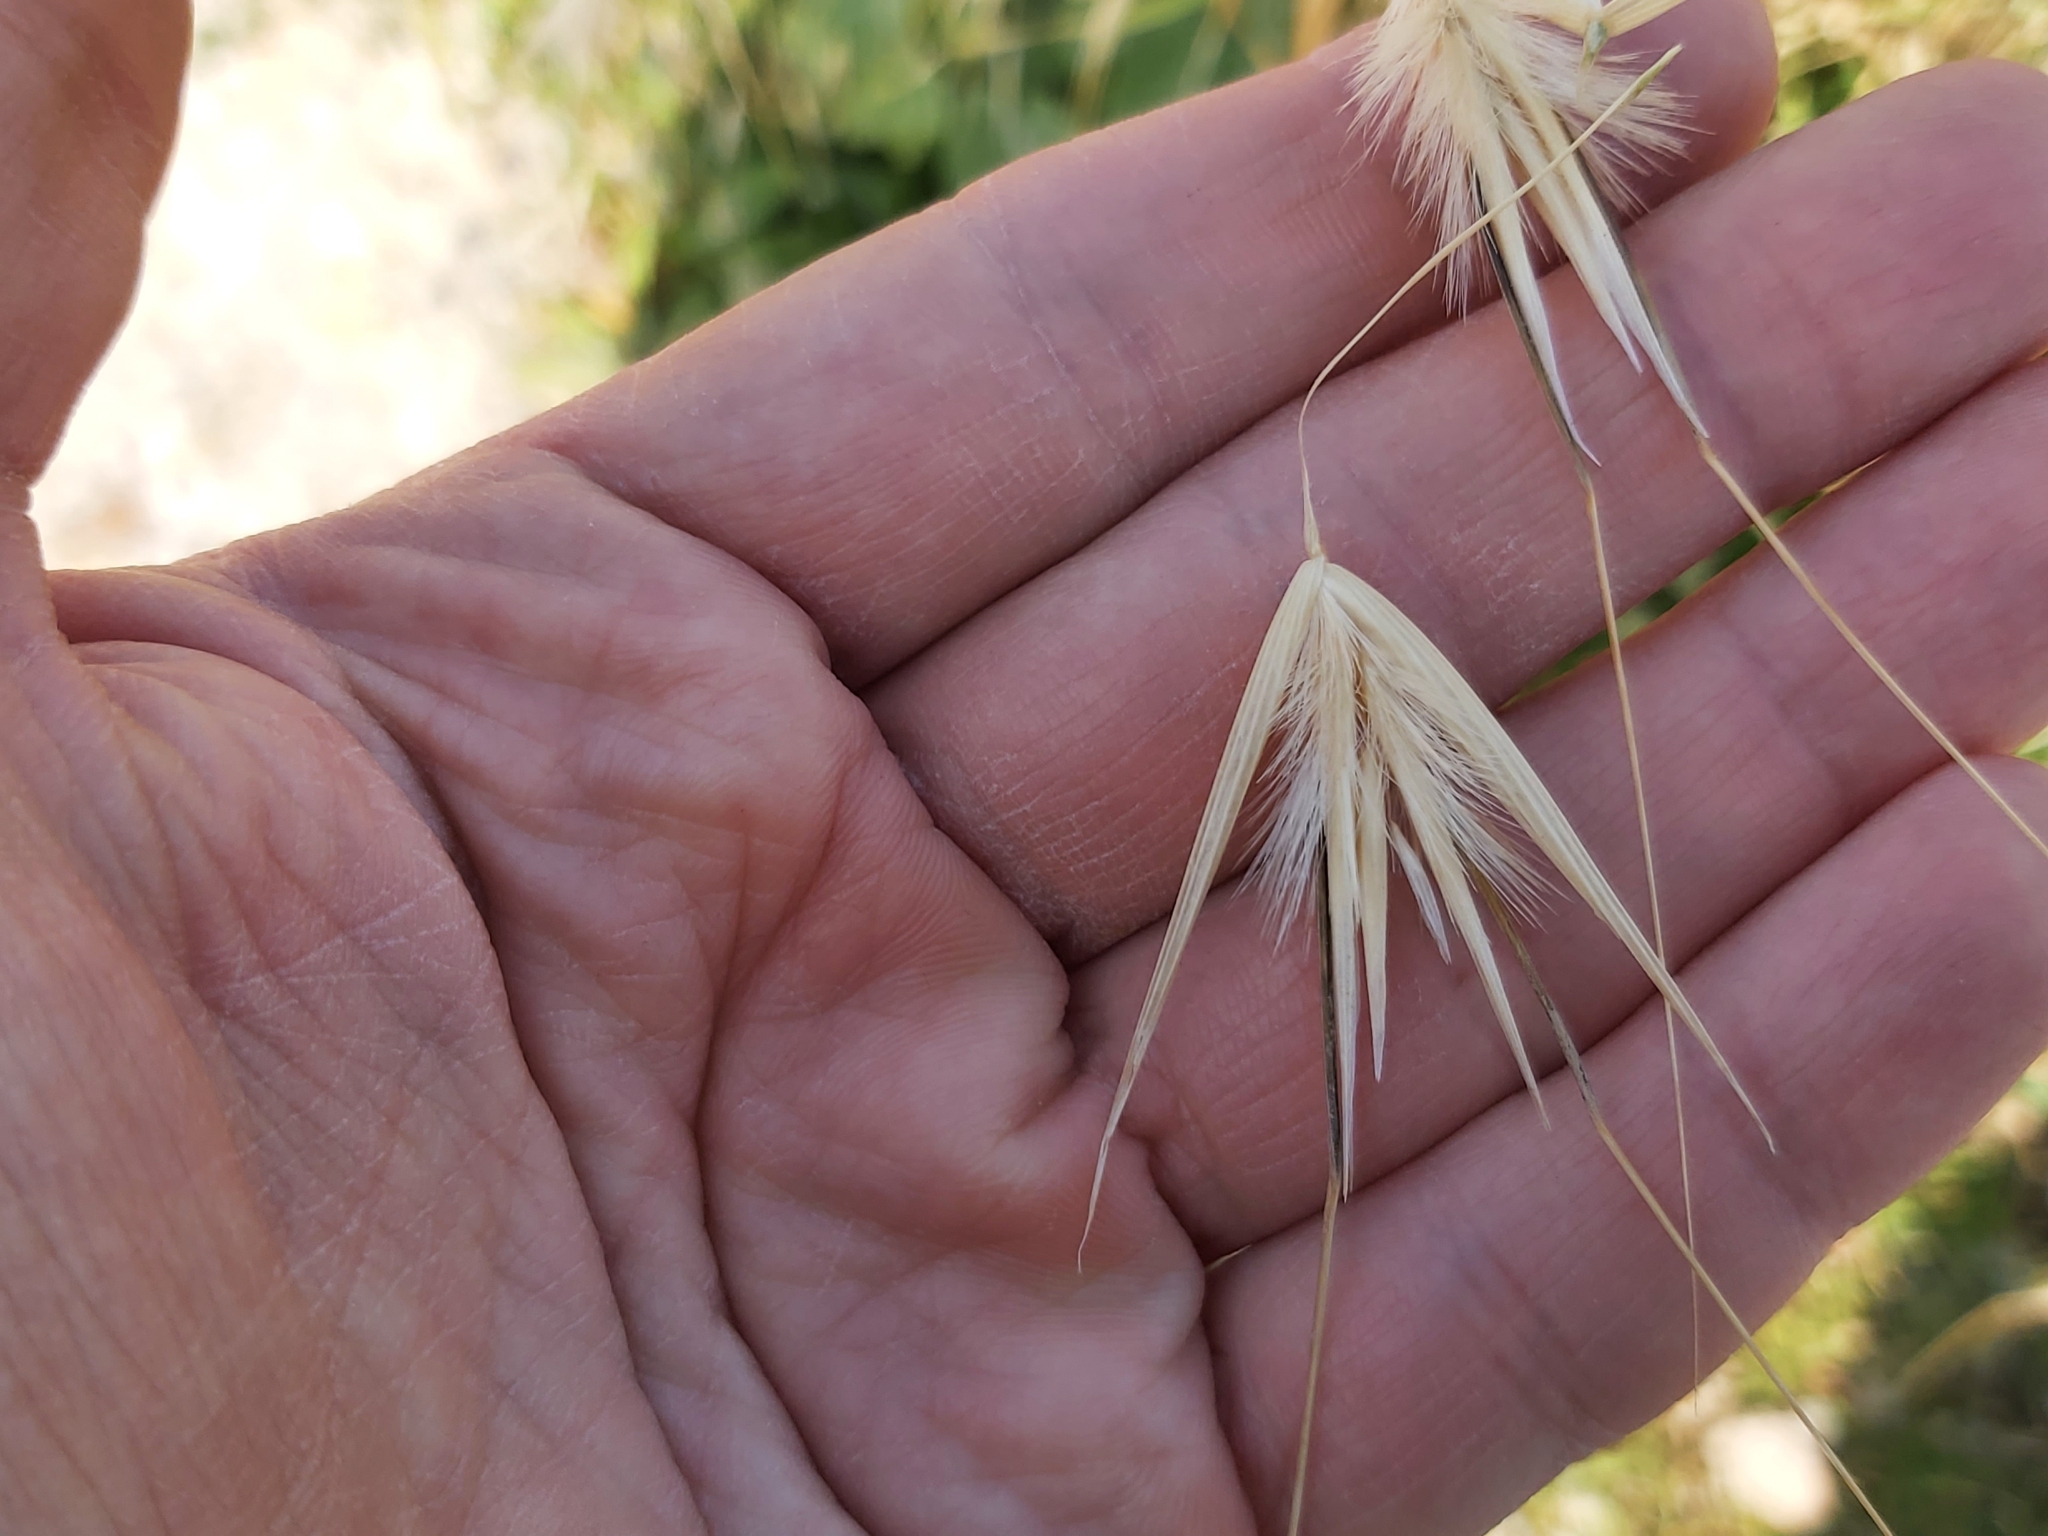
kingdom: Plantae
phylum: Tracheophyta
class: Liliopsida
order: Poales
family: Poaceae
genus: Avena
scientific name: Avena barbata
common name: Slender oat
